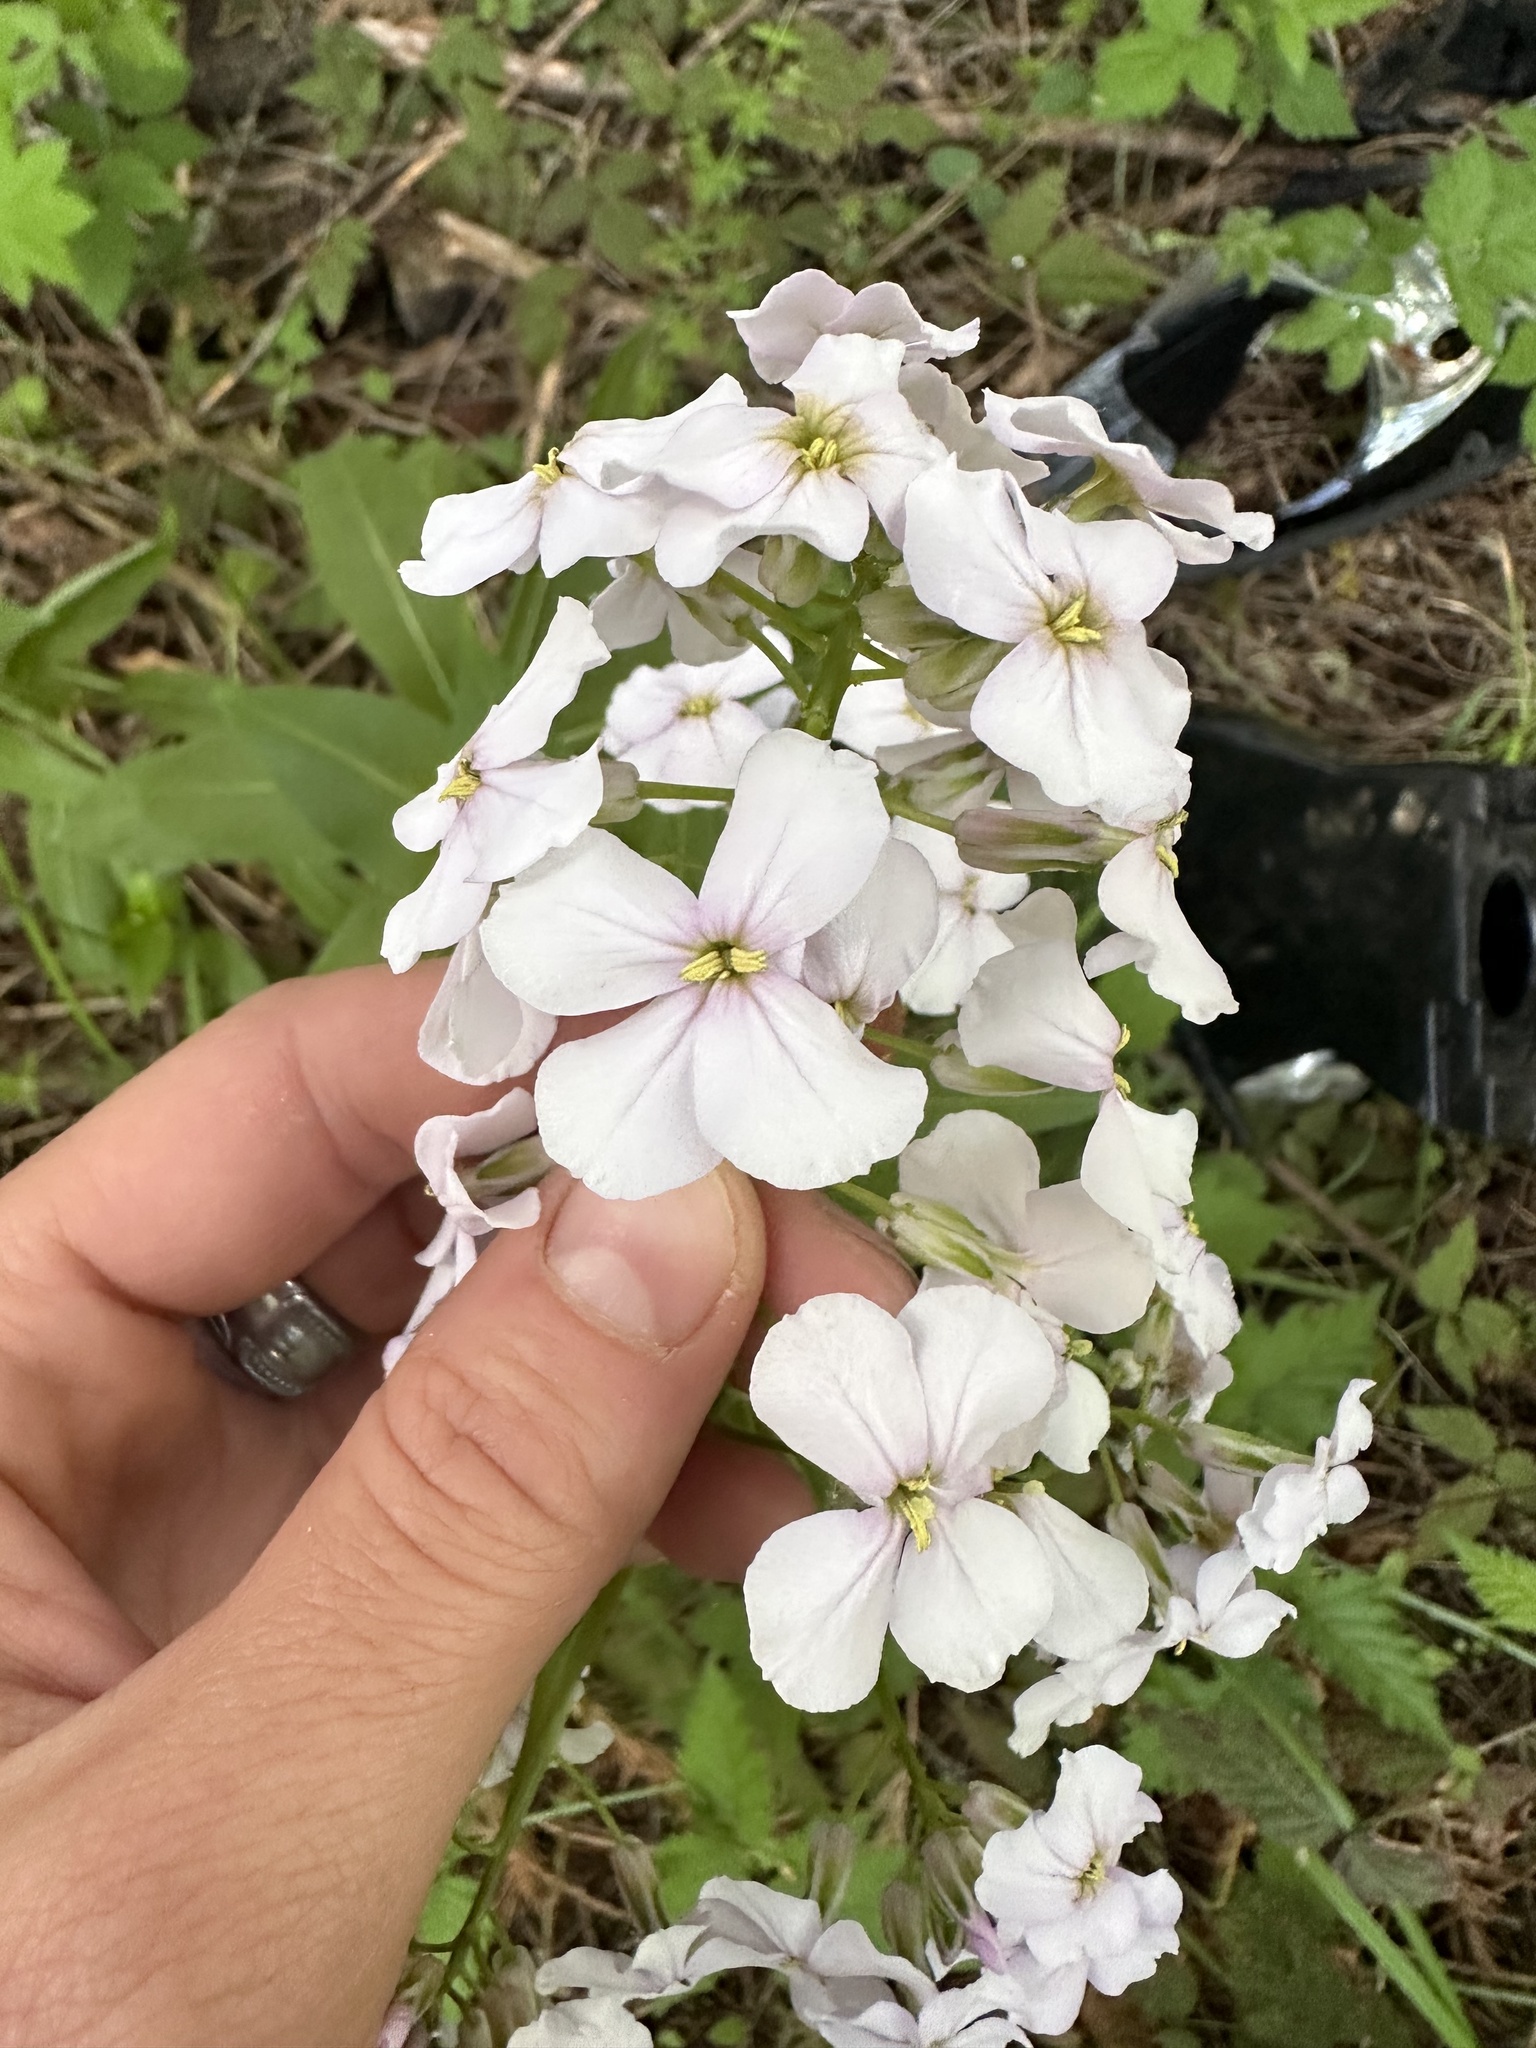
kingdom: Plantae
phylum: Tracheophyta
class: Magnoliopsida
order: Brassicales
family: Brassicaceae
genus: Hesperis
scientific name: Hesperis matronalis
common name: Dame's-violet
